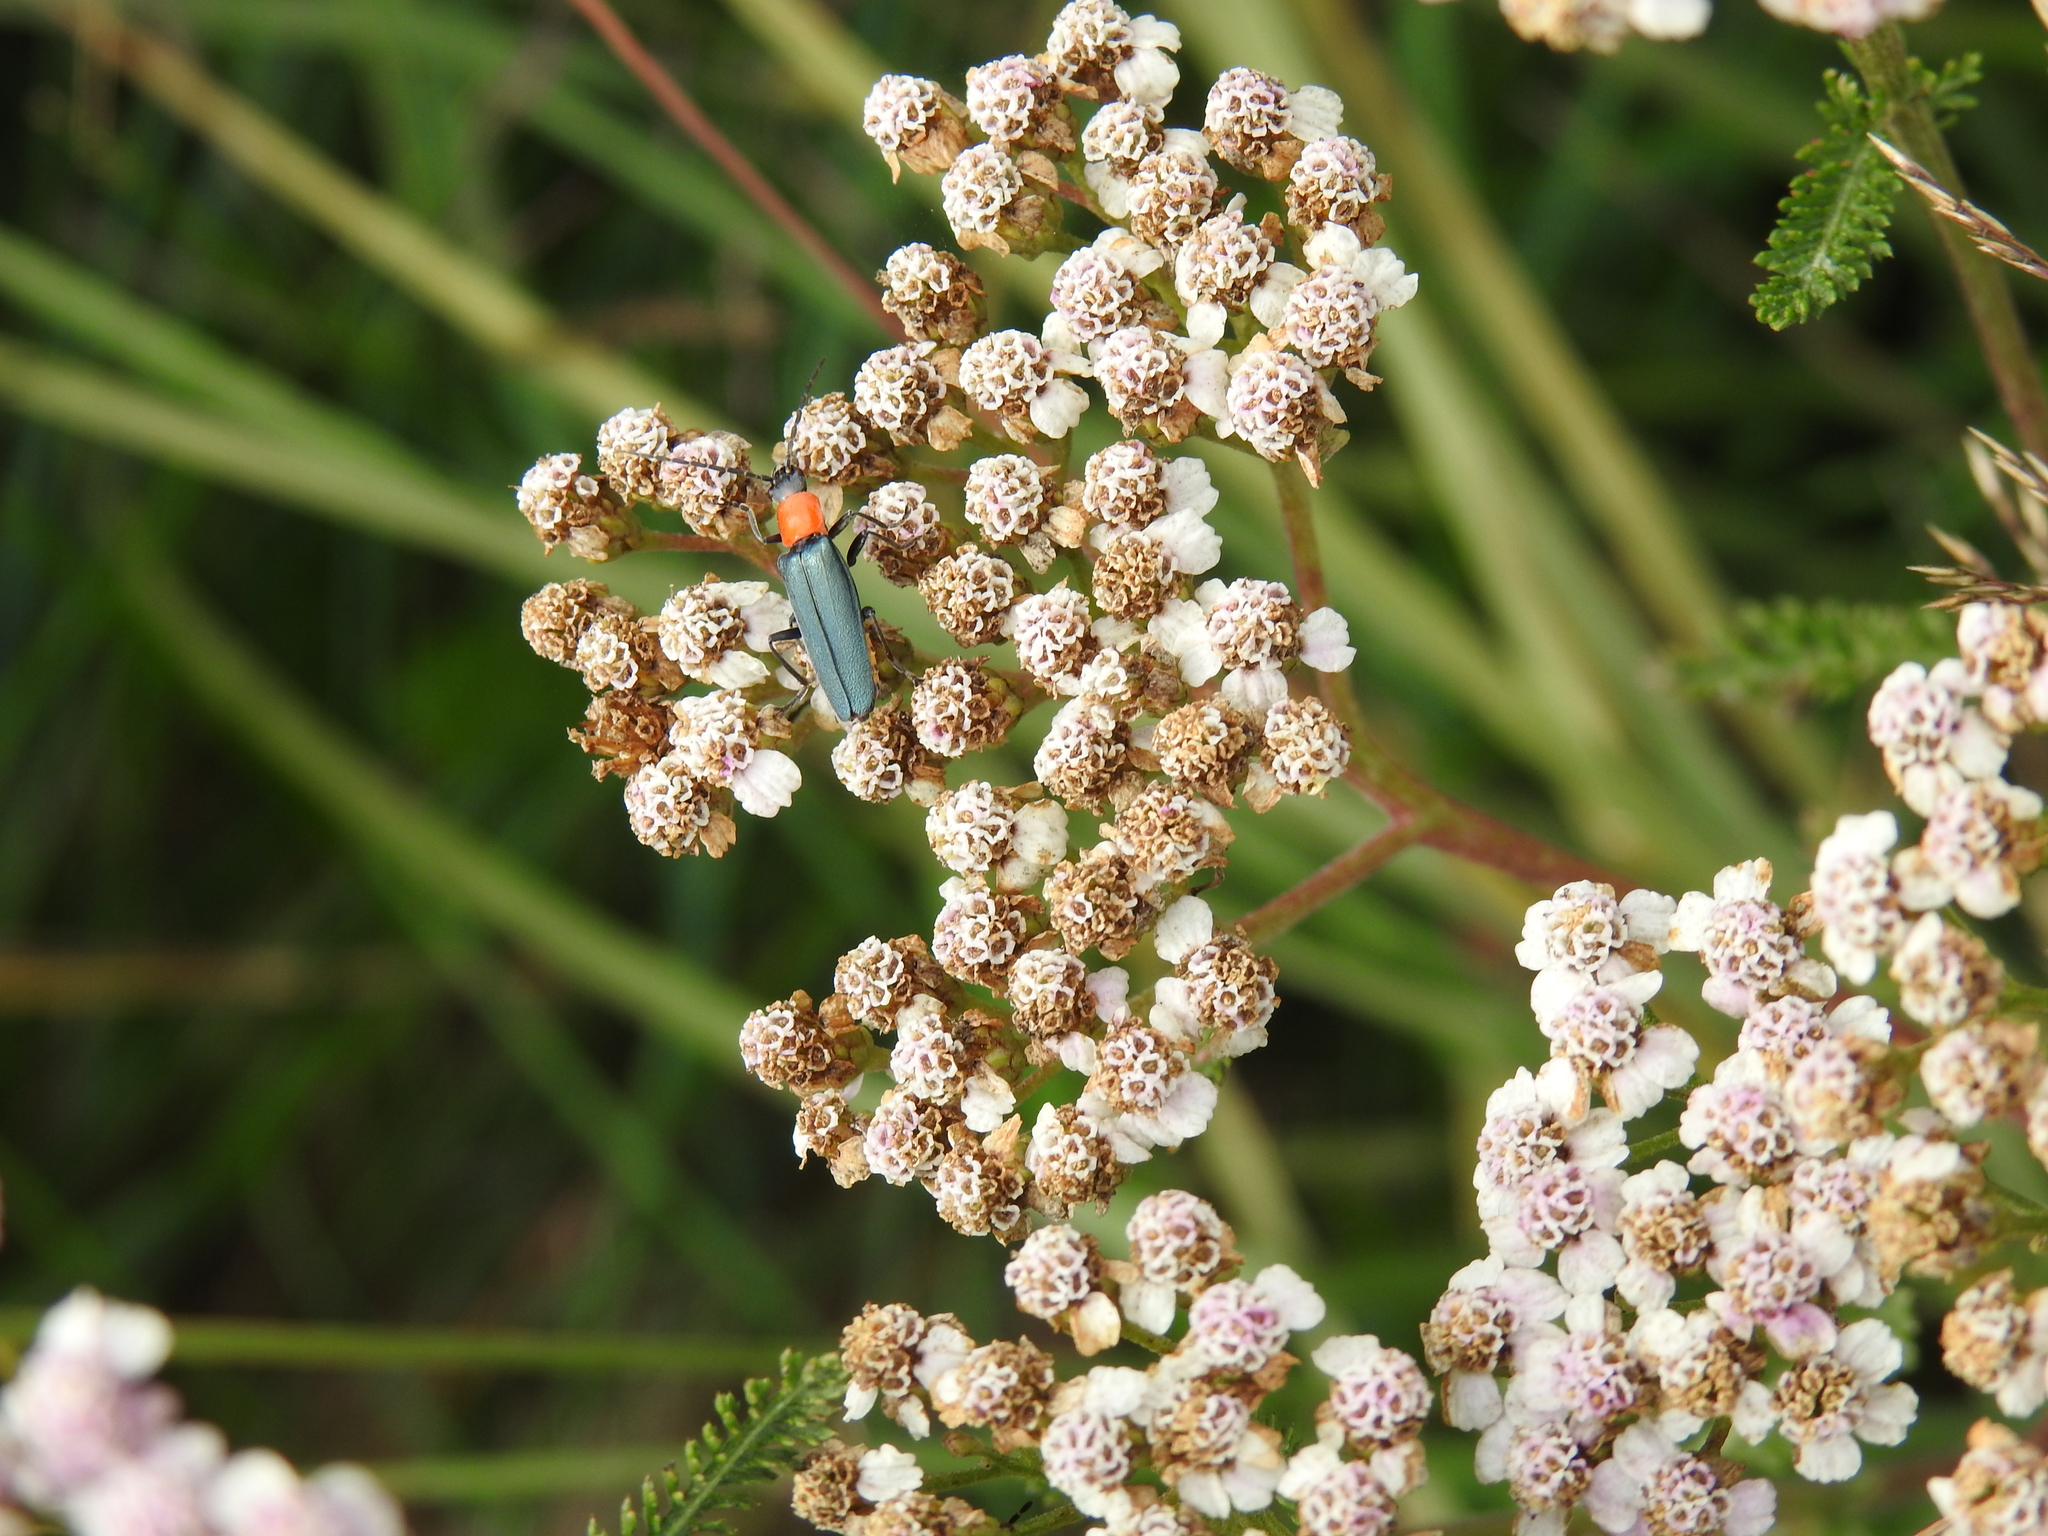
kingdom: Animalia
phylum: Arthropoda
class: Insecta
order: Coleoptera
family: Cantharidae
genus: Chauliognathus
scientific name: Chauliognathus
